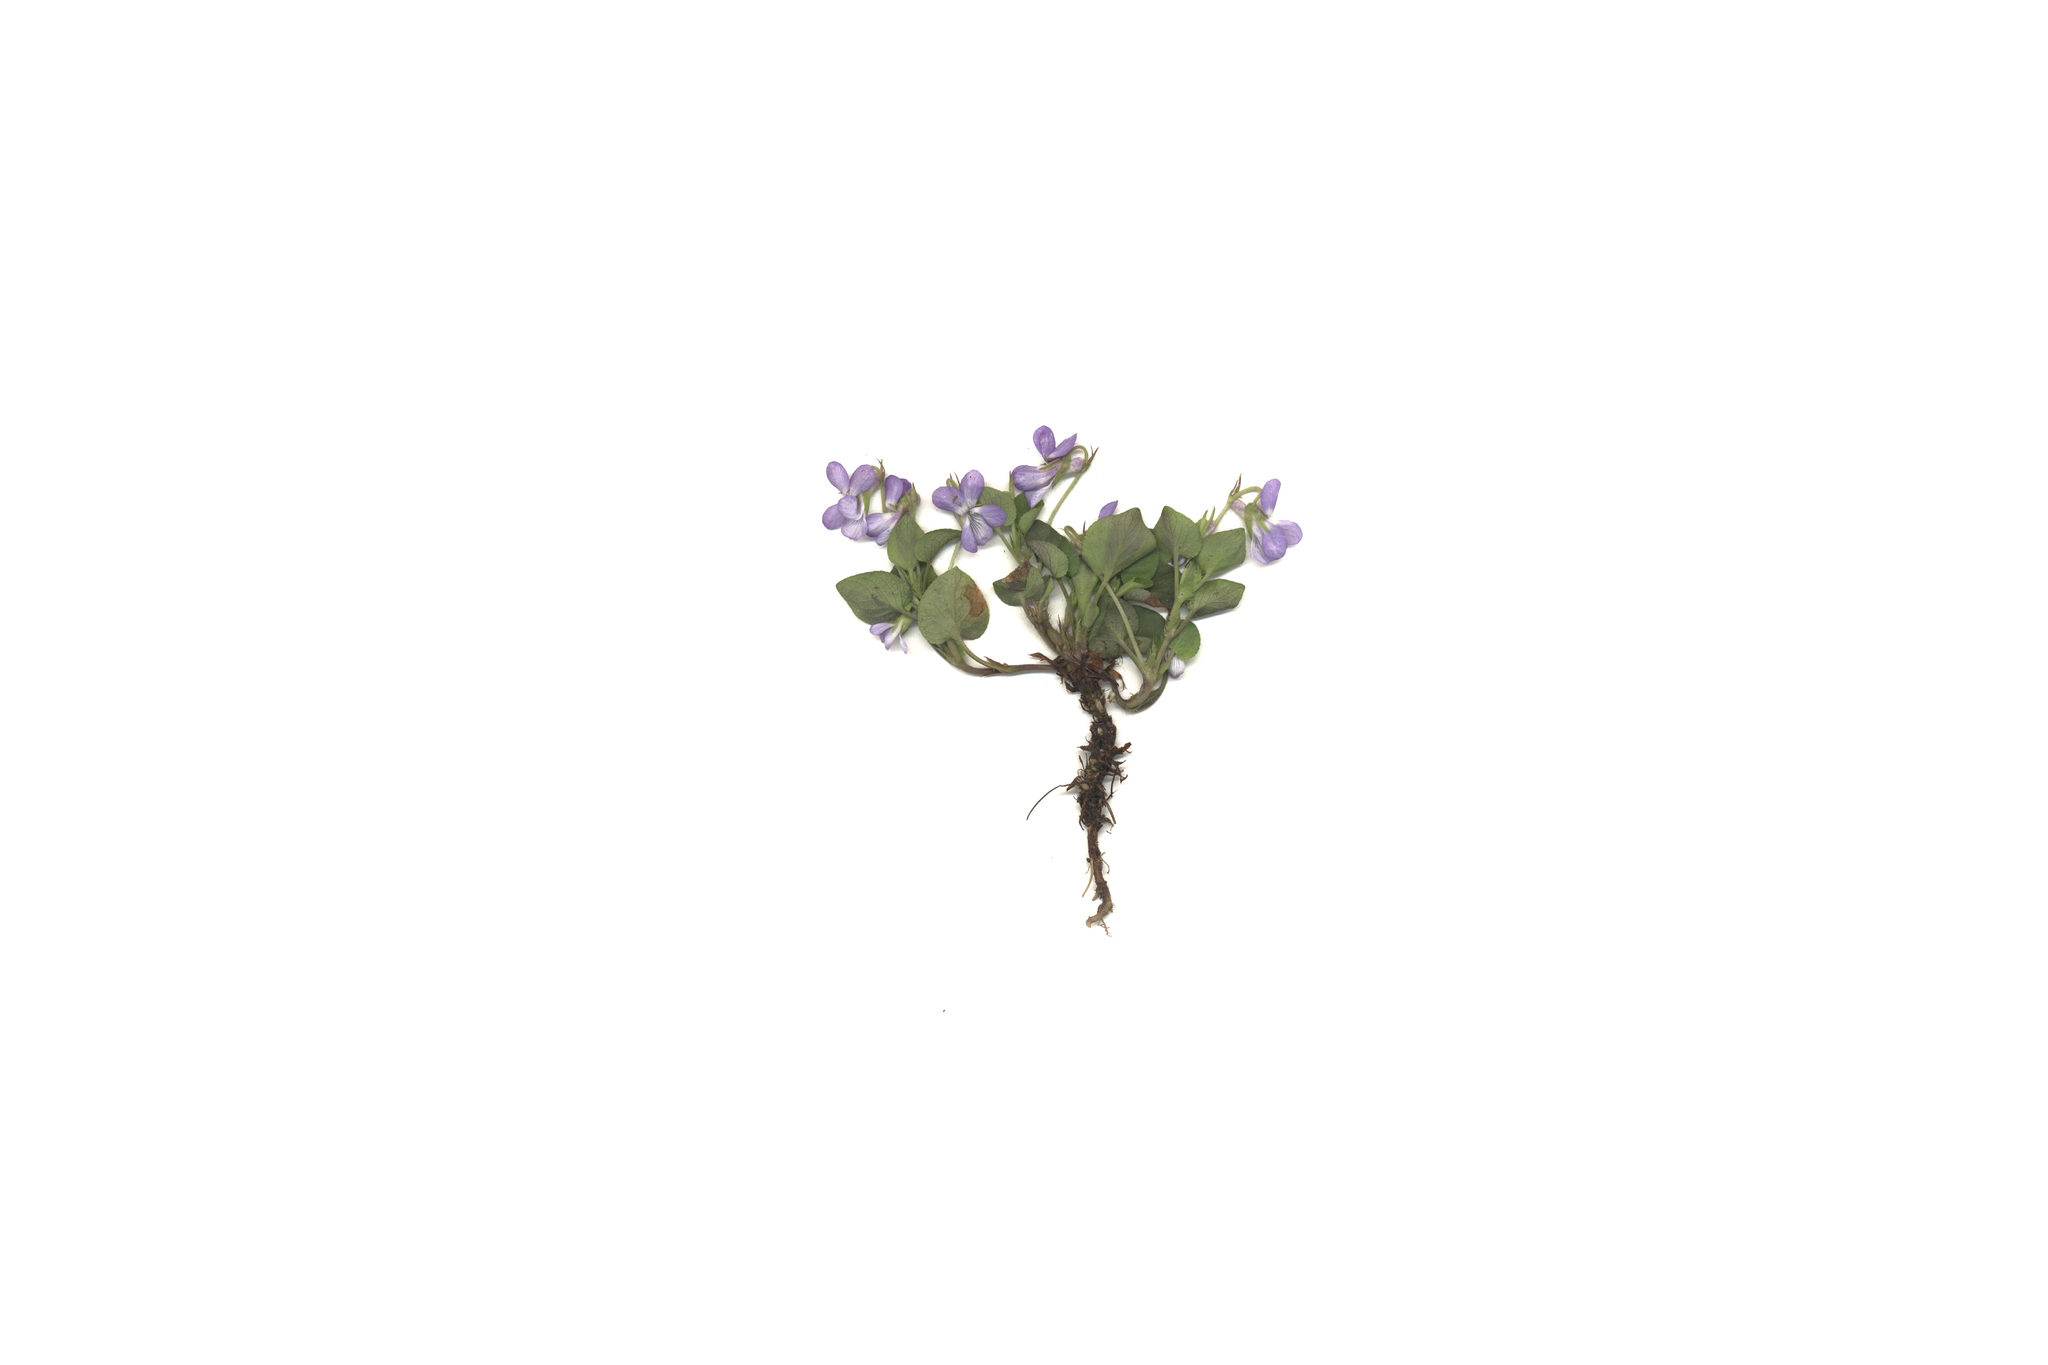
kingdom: Plantae
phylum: Tracheophyta
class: Magnoliopsida
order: Malpighiales
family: Violaceae
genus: Viola
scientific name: Viola rupestris
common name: Teesdale violet
